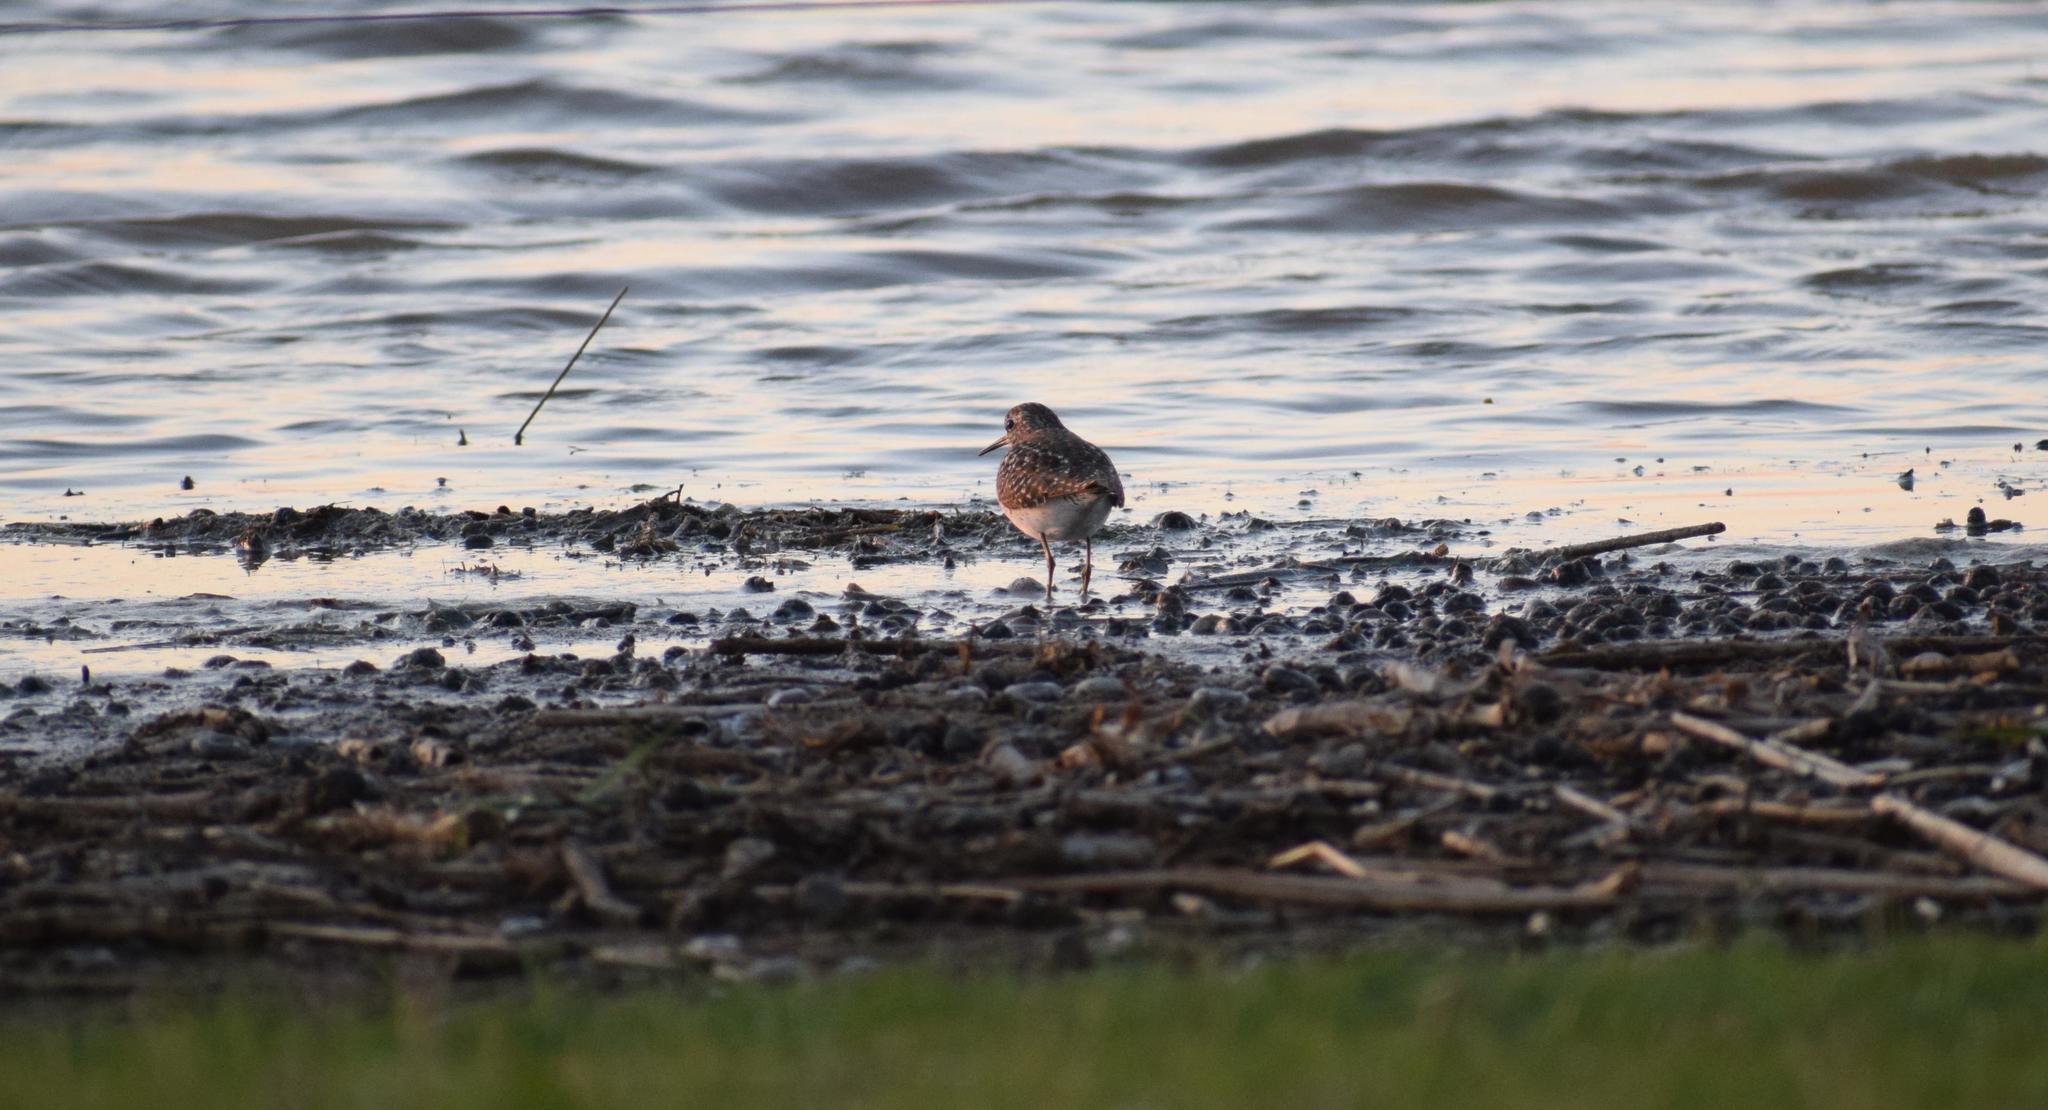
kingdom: Animalia
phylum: Chordata
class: Aves
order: Charadriiformes
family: Scolopacidae
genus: Tringa
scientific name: Tringa glareola
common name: Wood sandpiper
